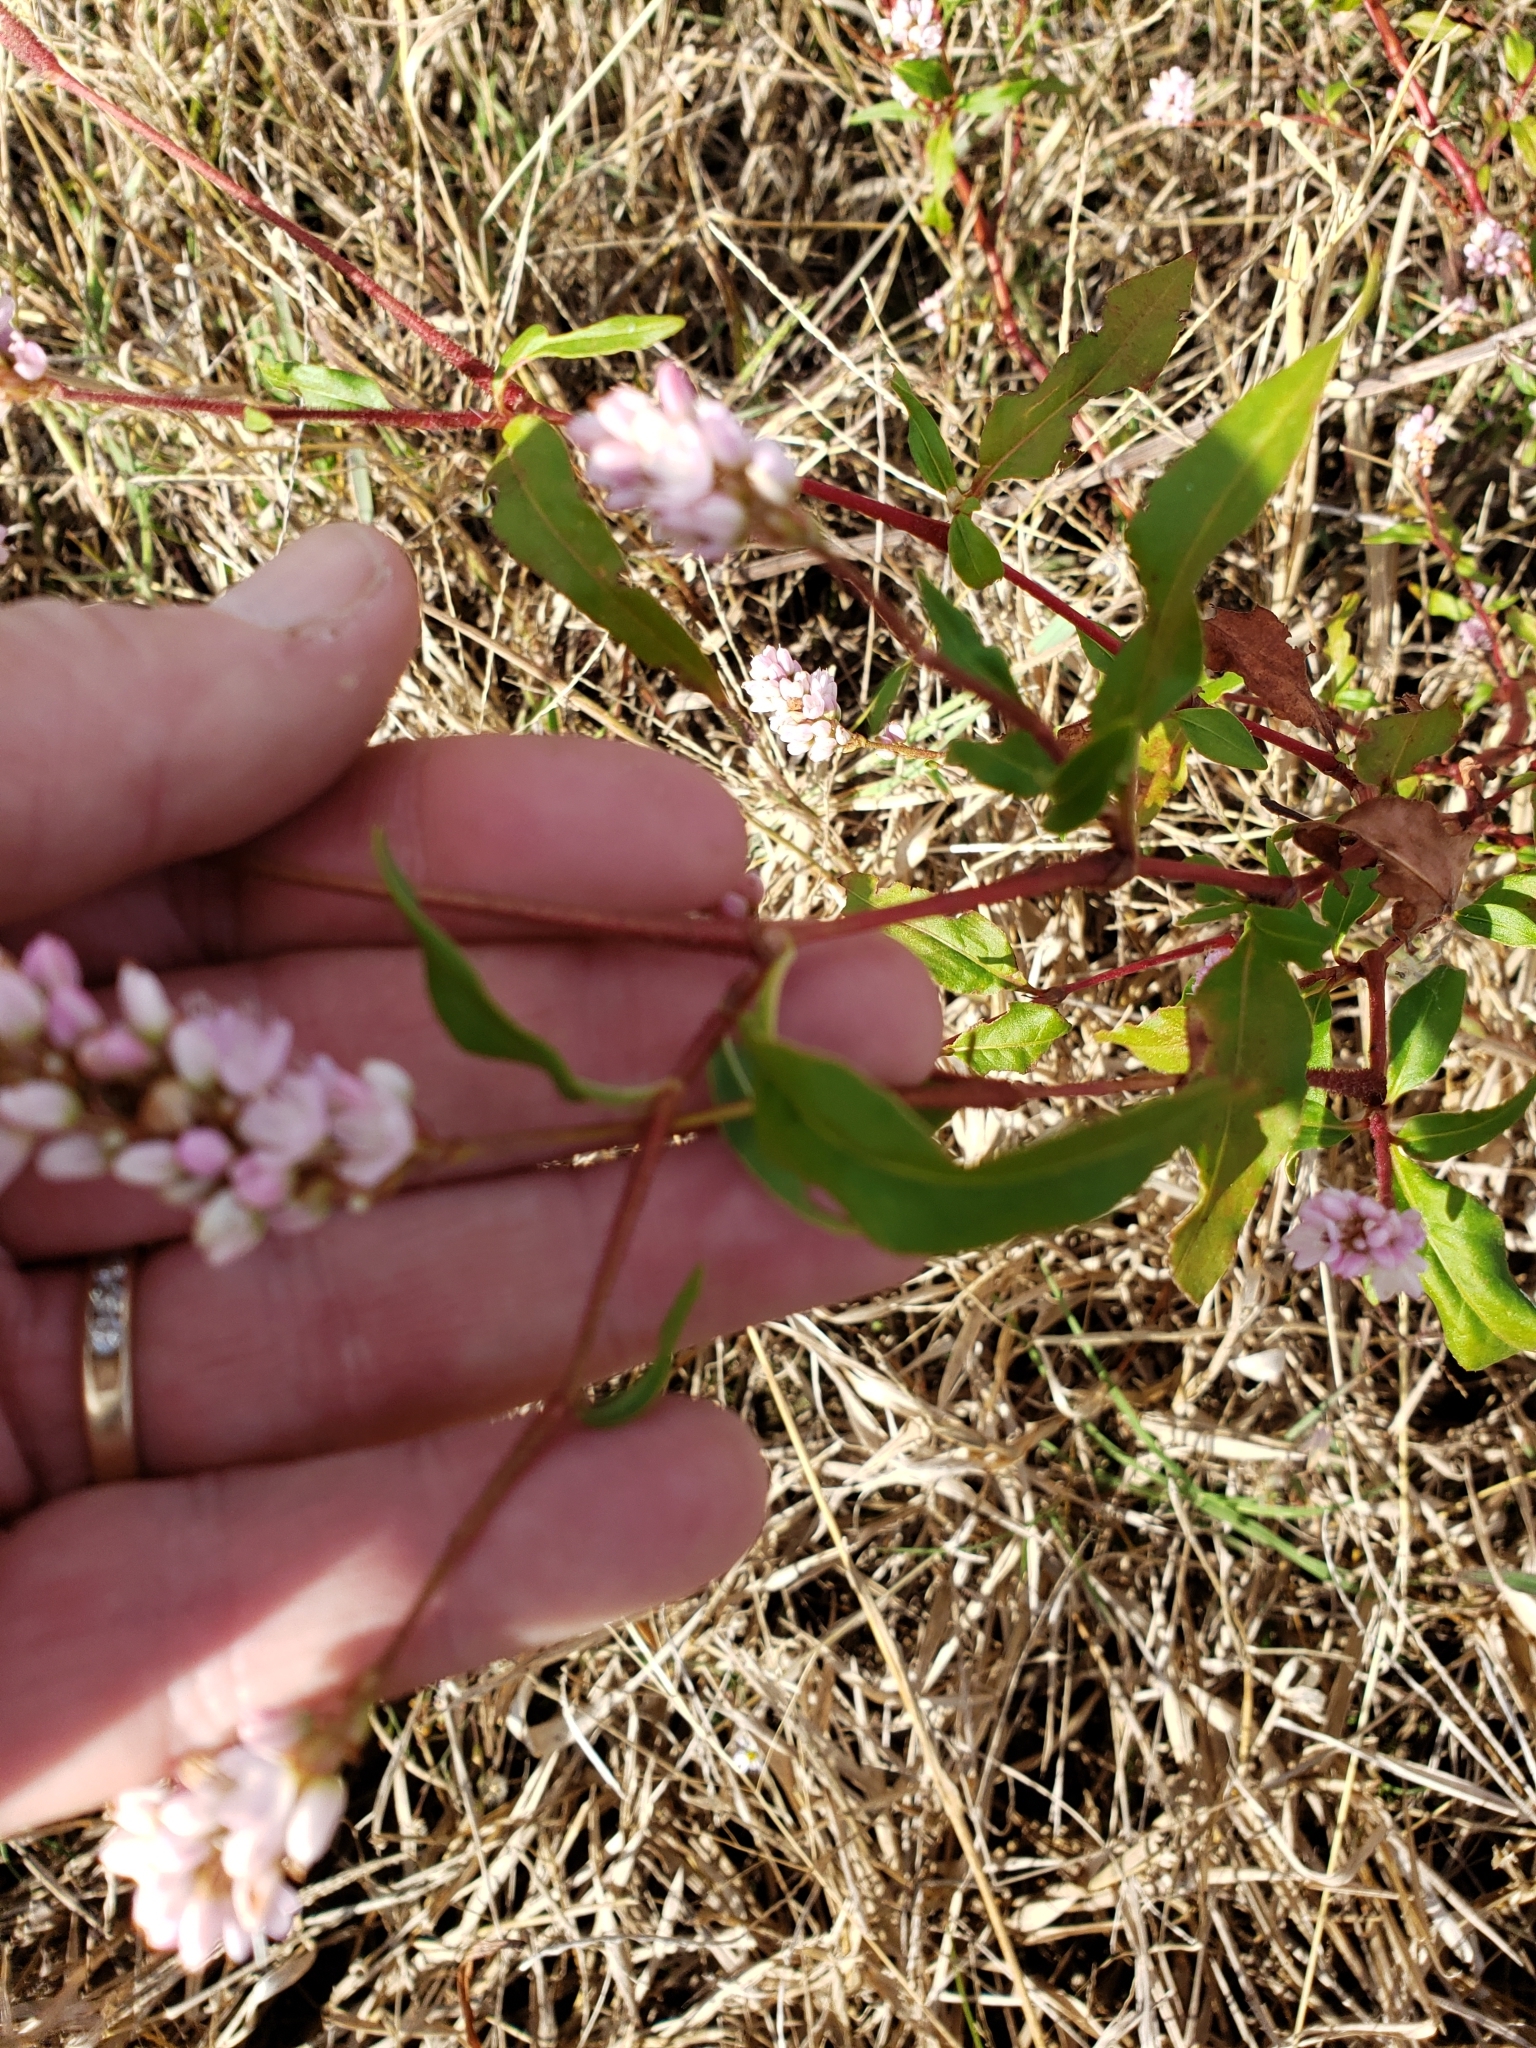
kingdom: Plantae
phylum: Tracheophyta
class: Magnoliopsida
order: Caryophyllales
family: Polygonaceae
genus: Persicaria
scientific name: Persicaria pensylvanica
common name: Pinkweed
